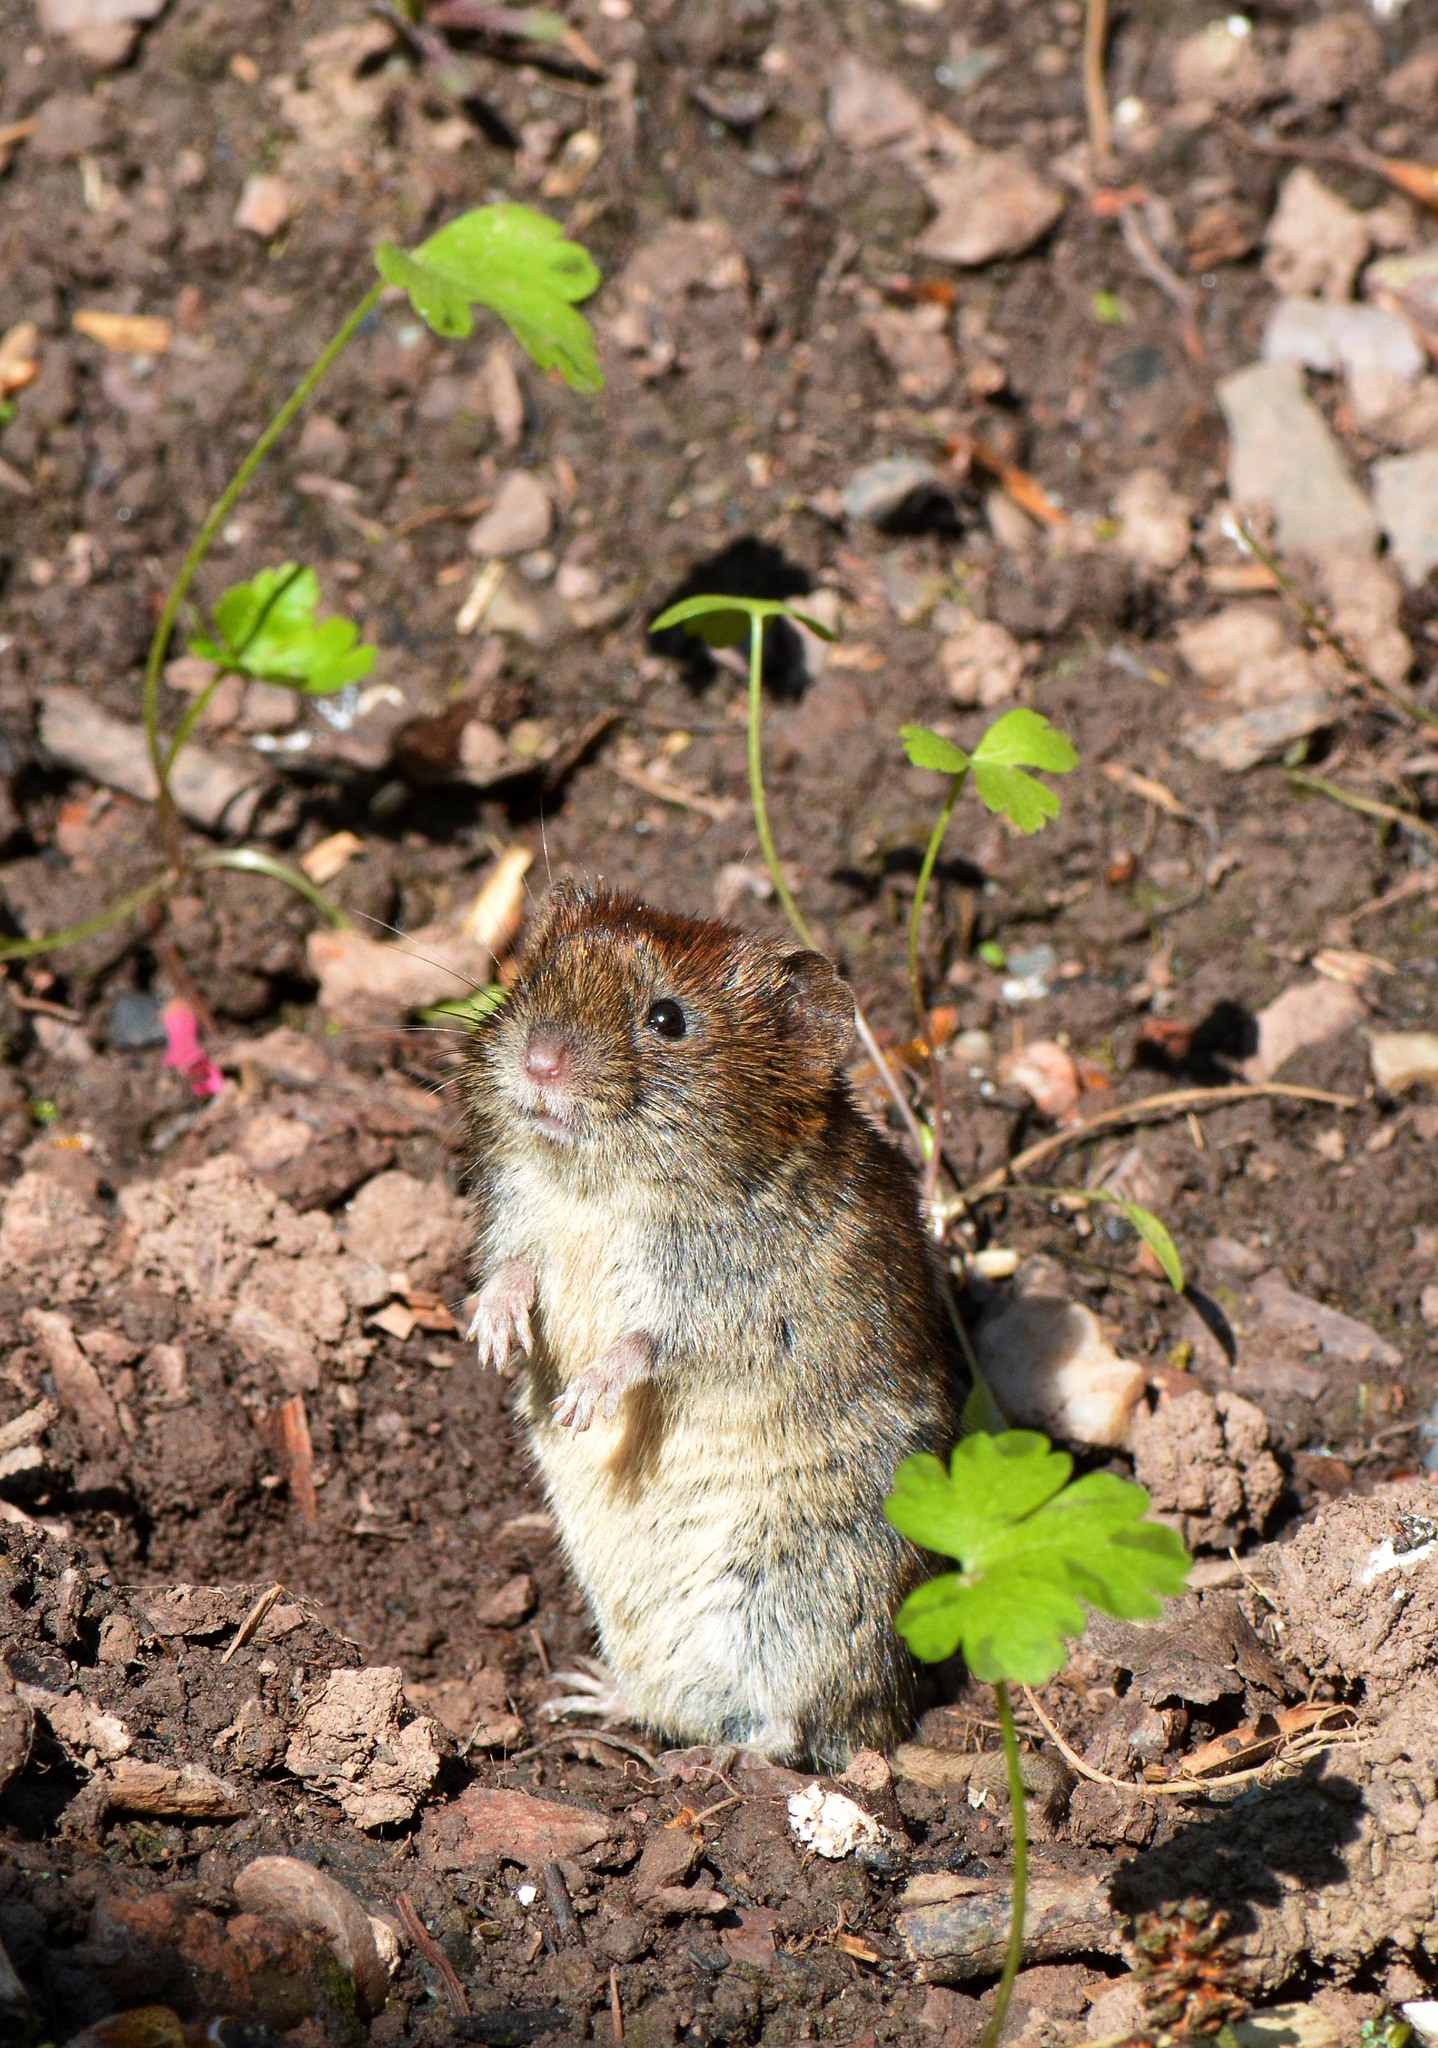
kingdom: Animalia
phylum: Chordata
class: Mammalia
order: Rodentia
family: Cricetidae
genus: Myodes
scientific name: Myodes glareolus
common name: Bank vole
